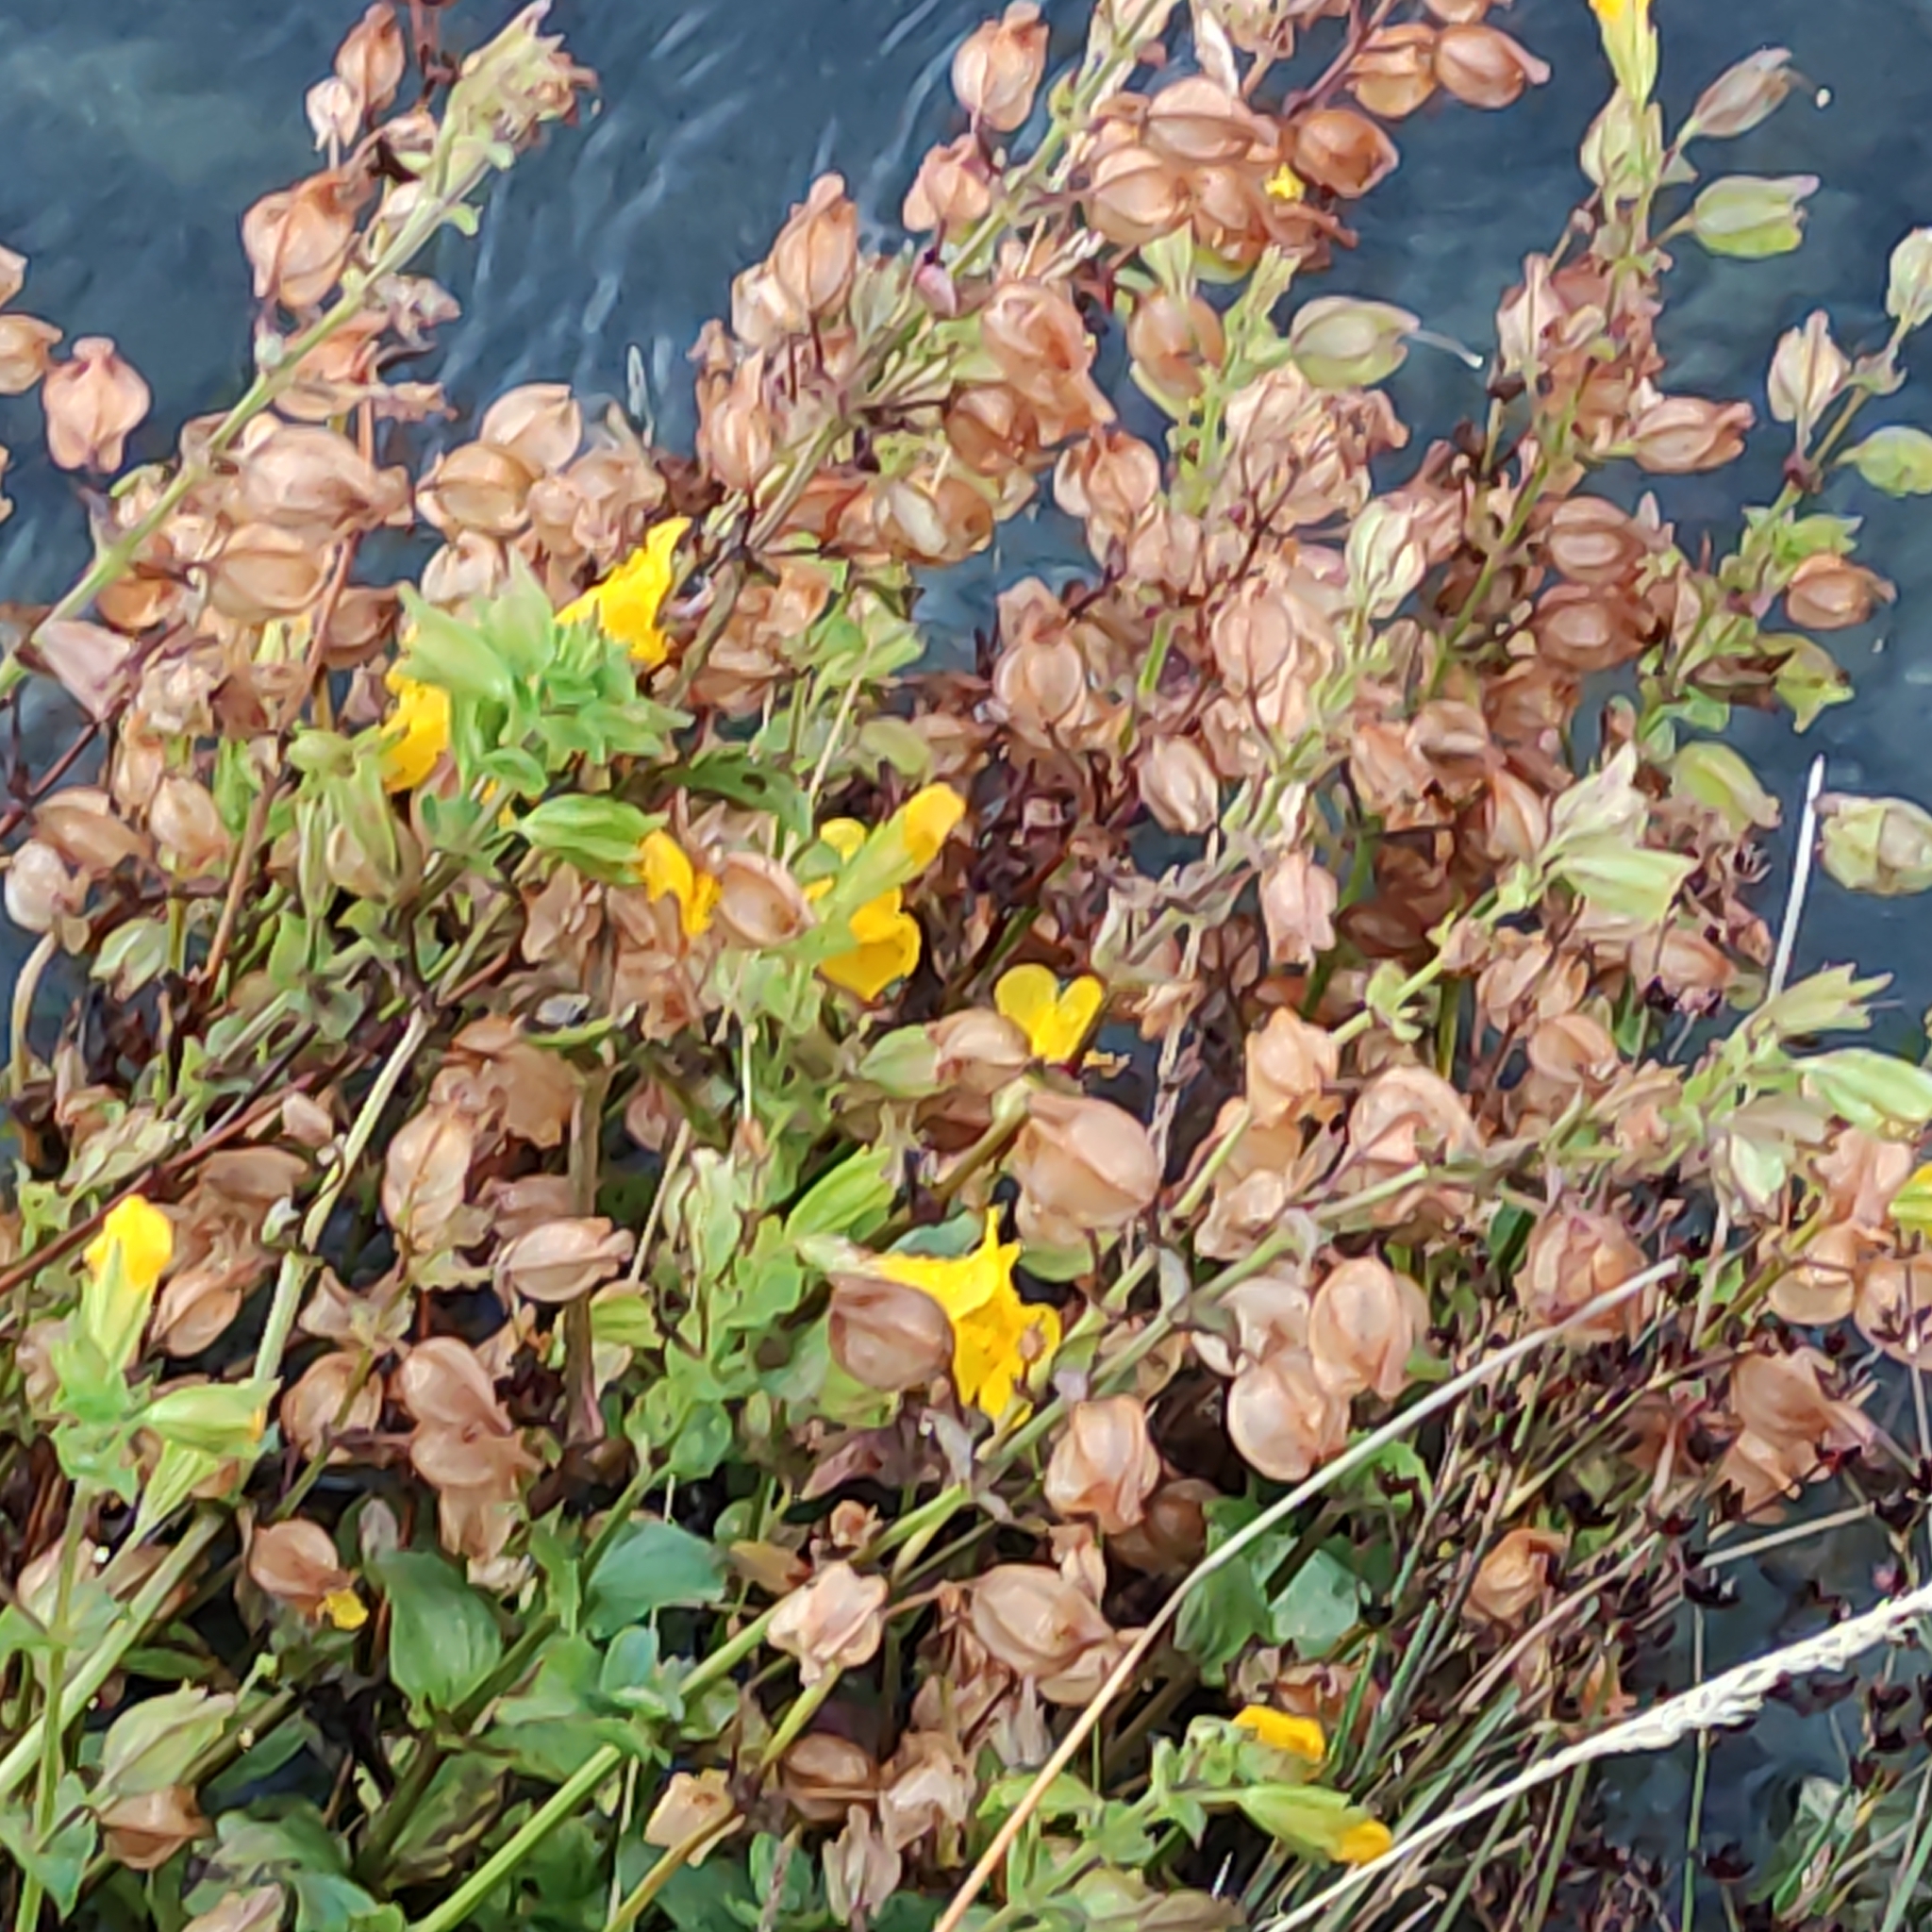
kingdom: Plantae
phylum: Tracheophyta
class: Magnoliopsida
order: Lamiales
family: Phrymaceae
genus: Erythranthe
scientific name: Erythranthe guttata
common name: Monkeyflower
